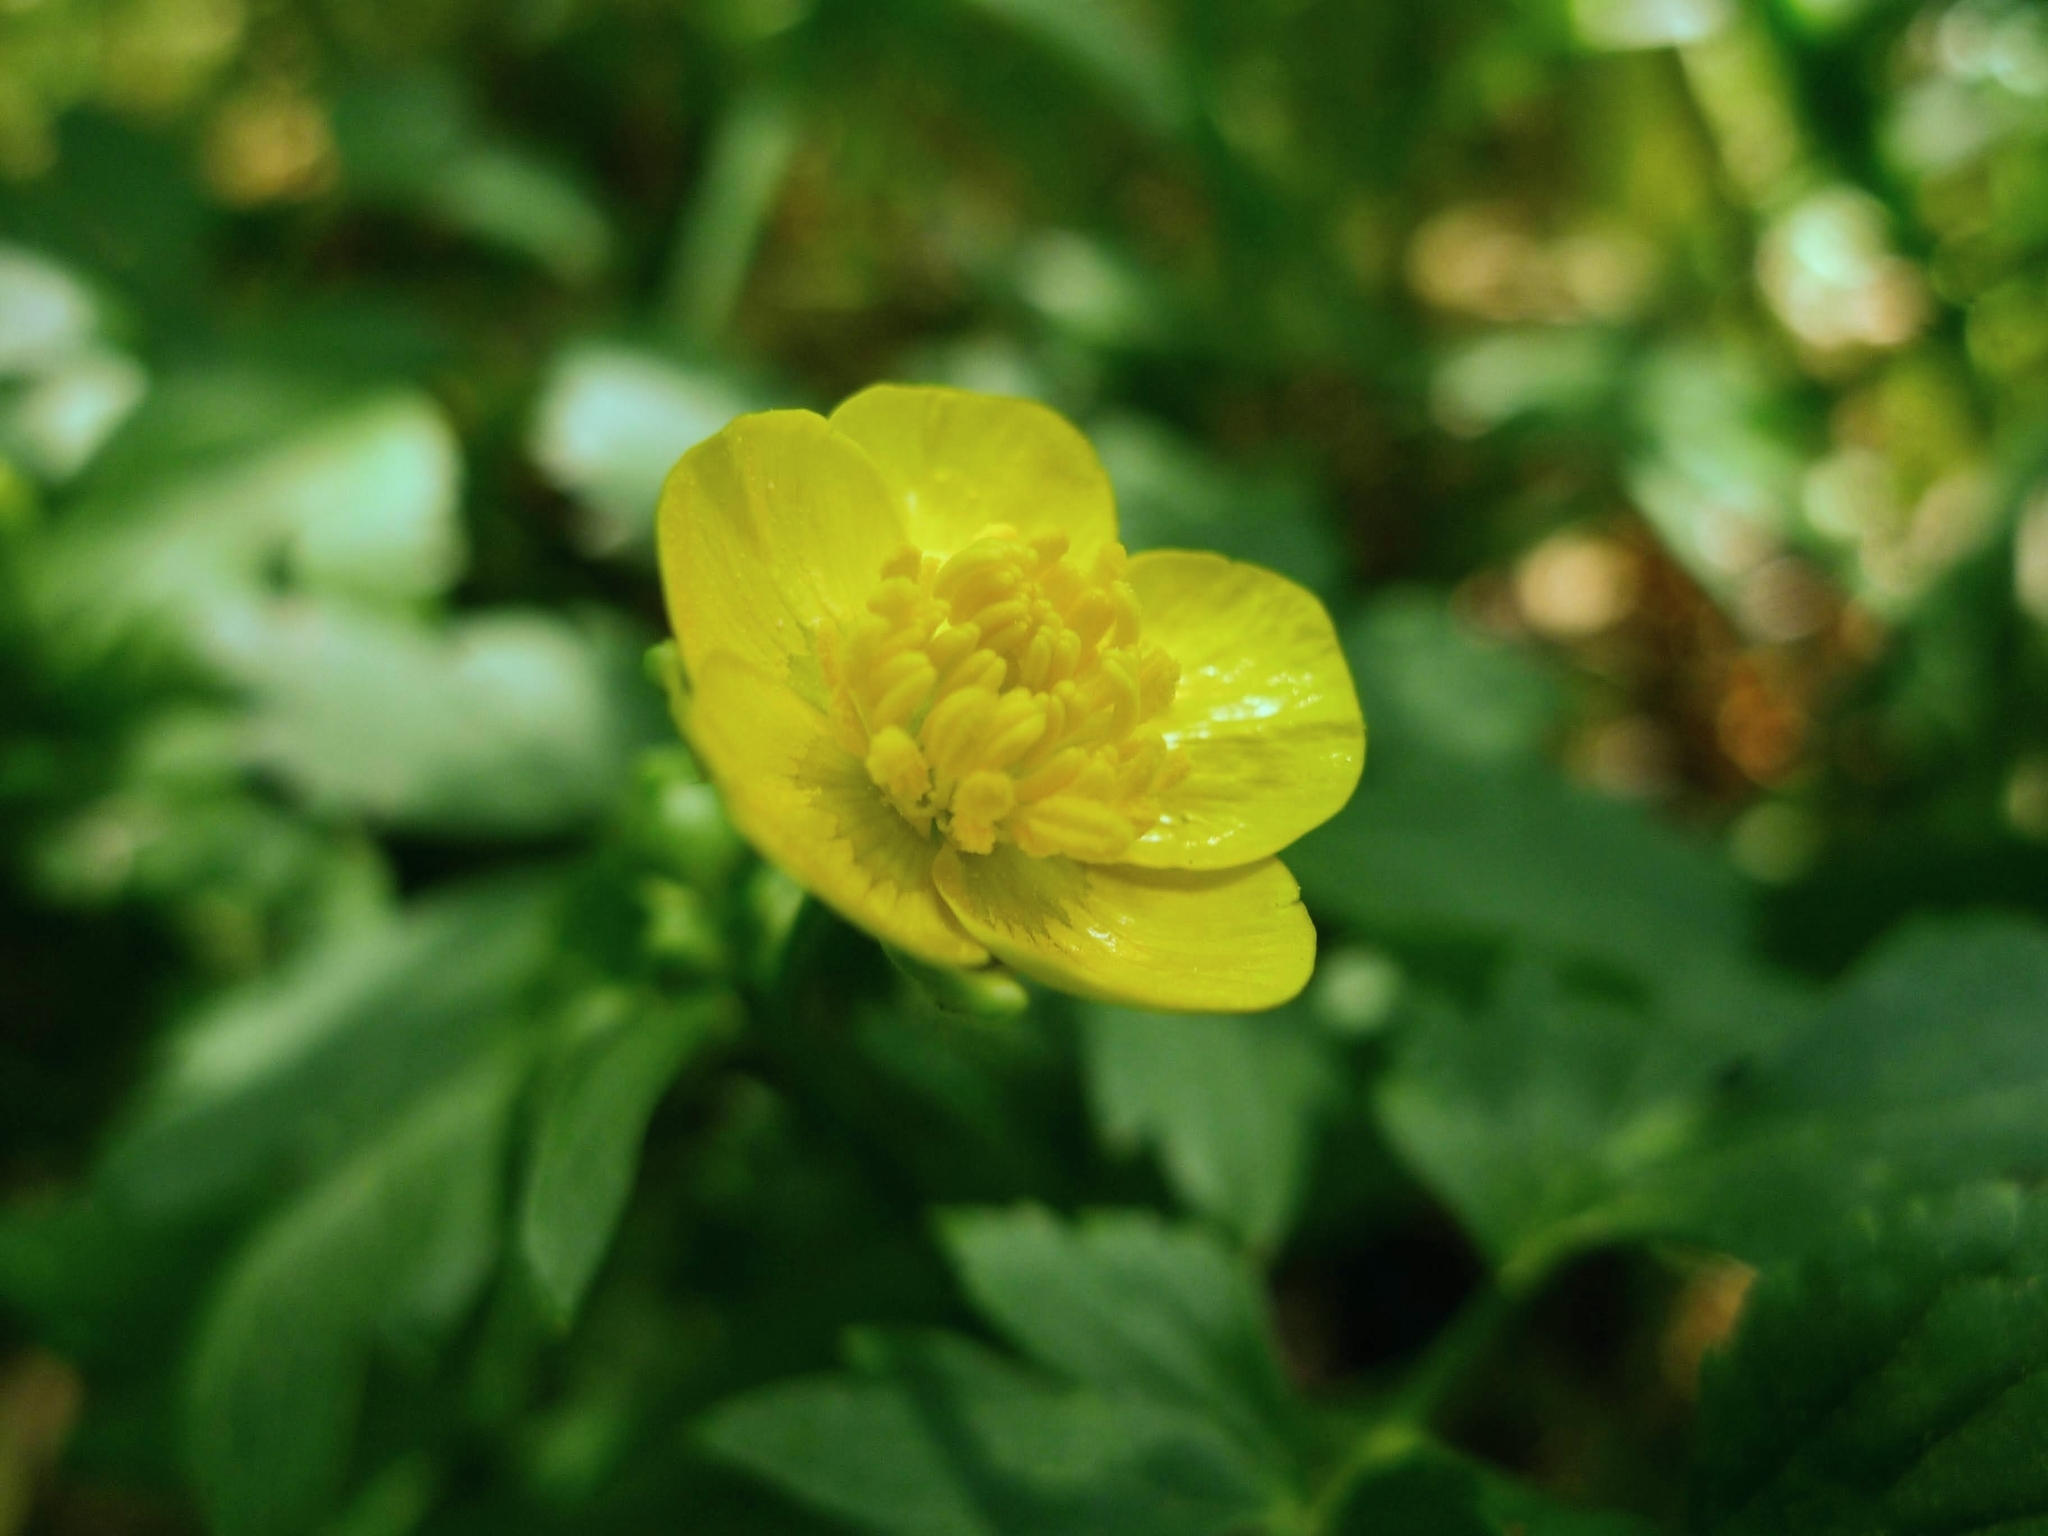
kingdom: Plantae
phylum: Tracheophyta
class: Magnoliopsida
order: Ranunculales
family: Ranunculaceae
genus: Ranunculus
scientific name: Ranunculus repens
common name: Creeping buttercup
